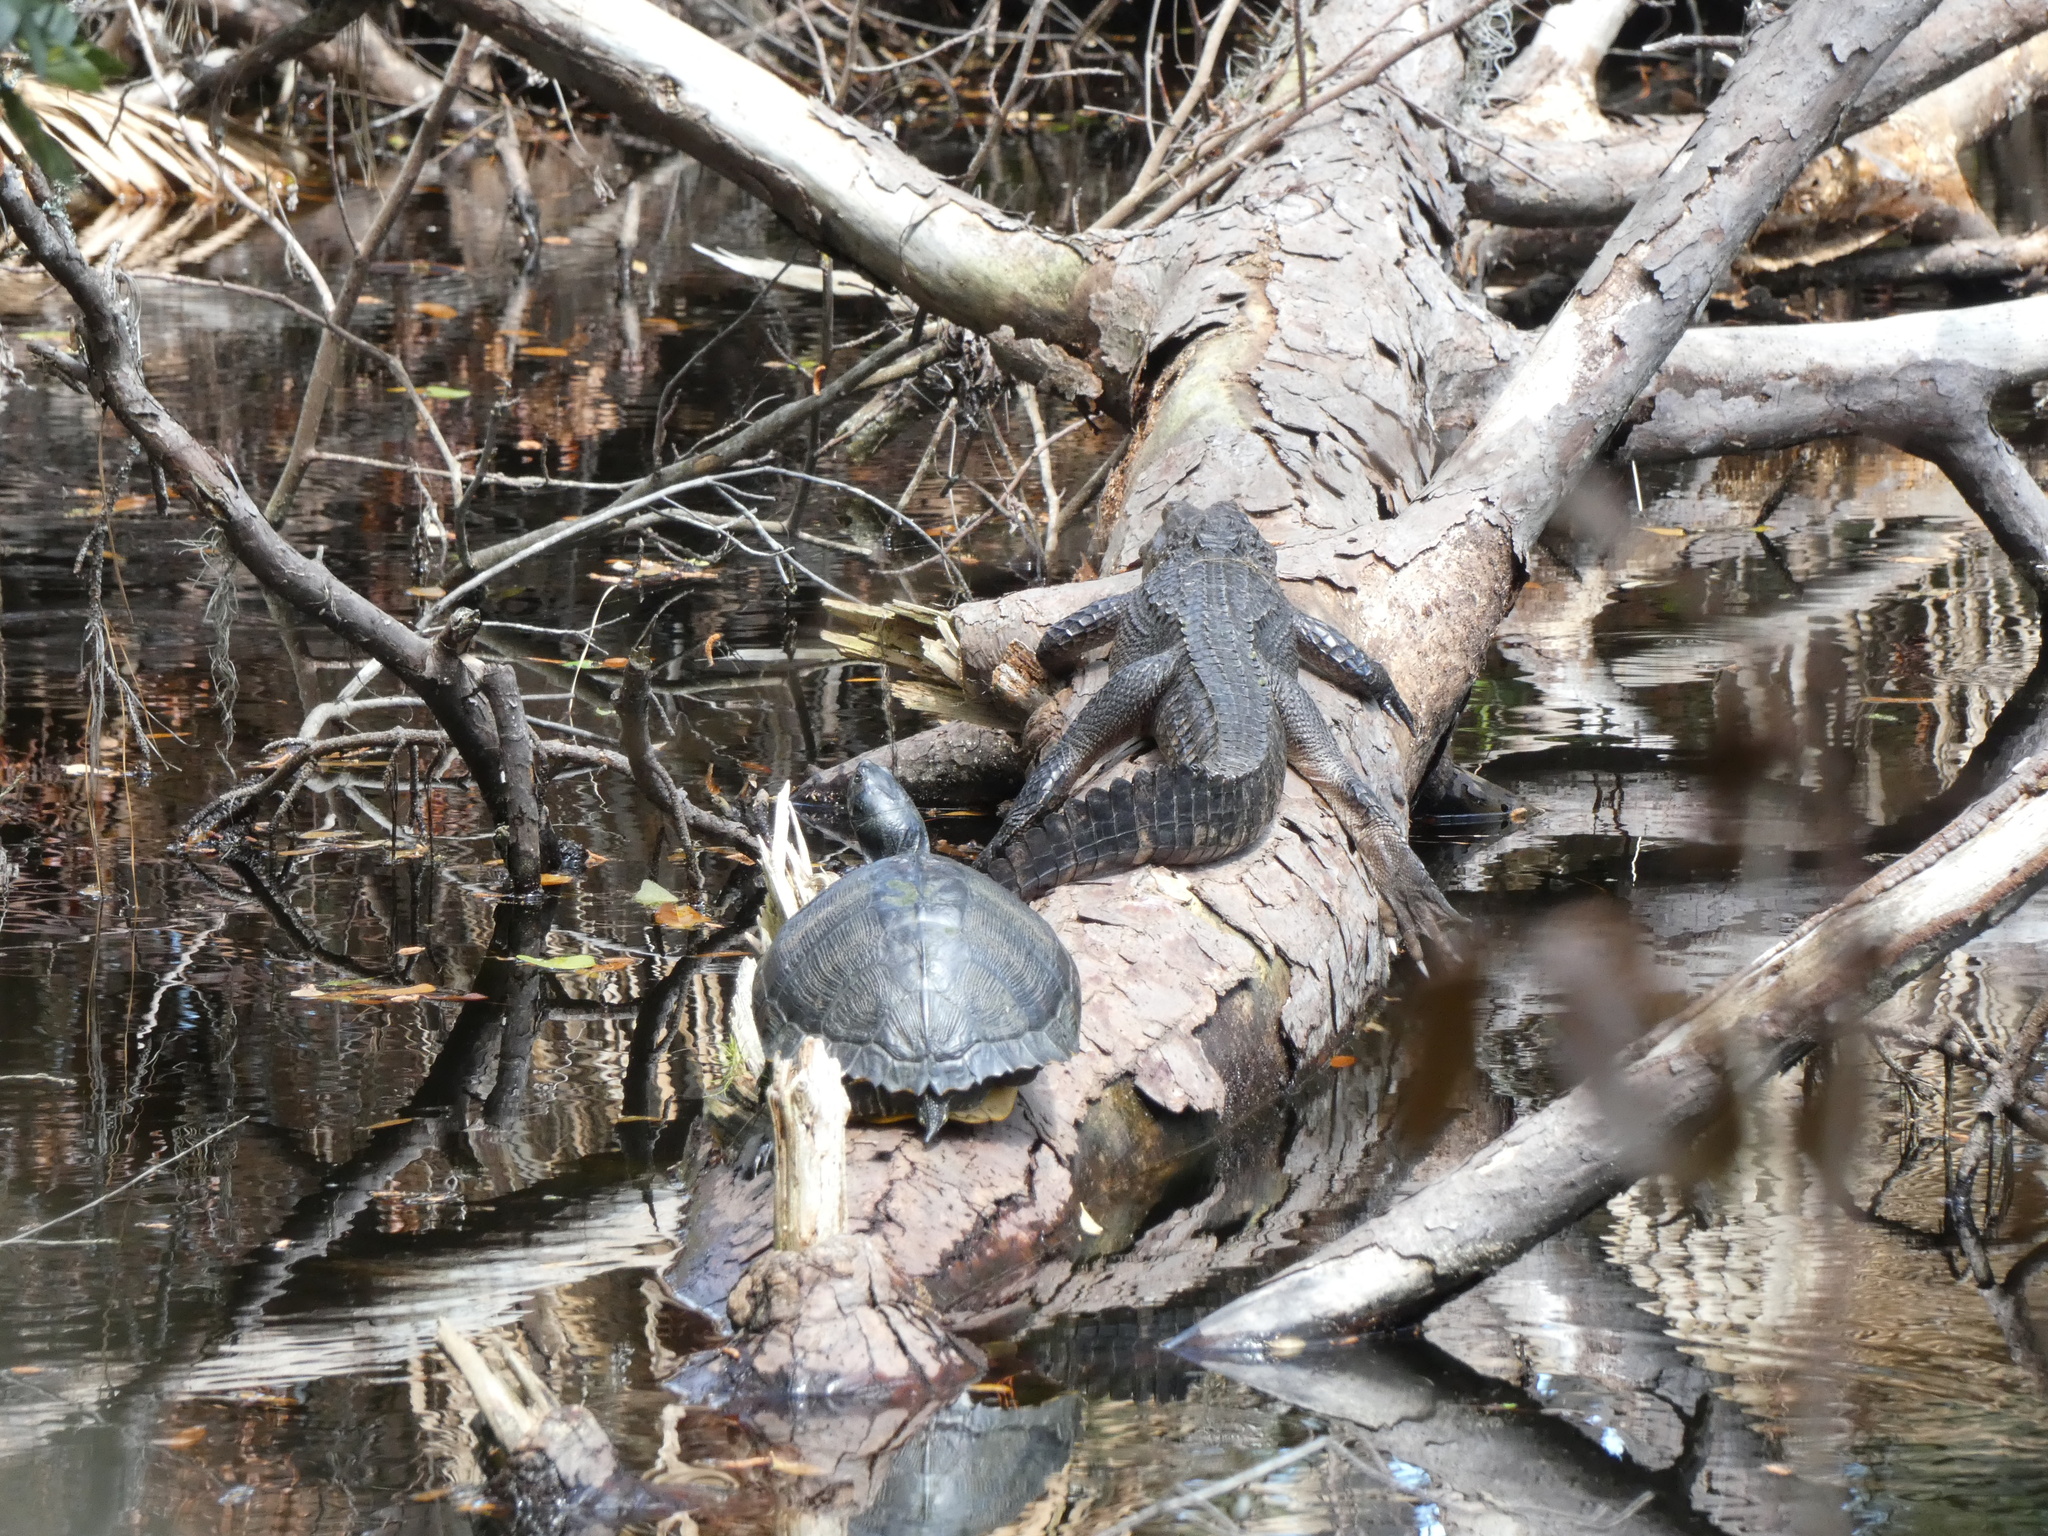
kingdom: Animalia
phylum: Chordata
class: Crocodylia
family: Alligatoridae
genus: Alligator
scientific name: Alligator mississippiensis
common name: American alligator
